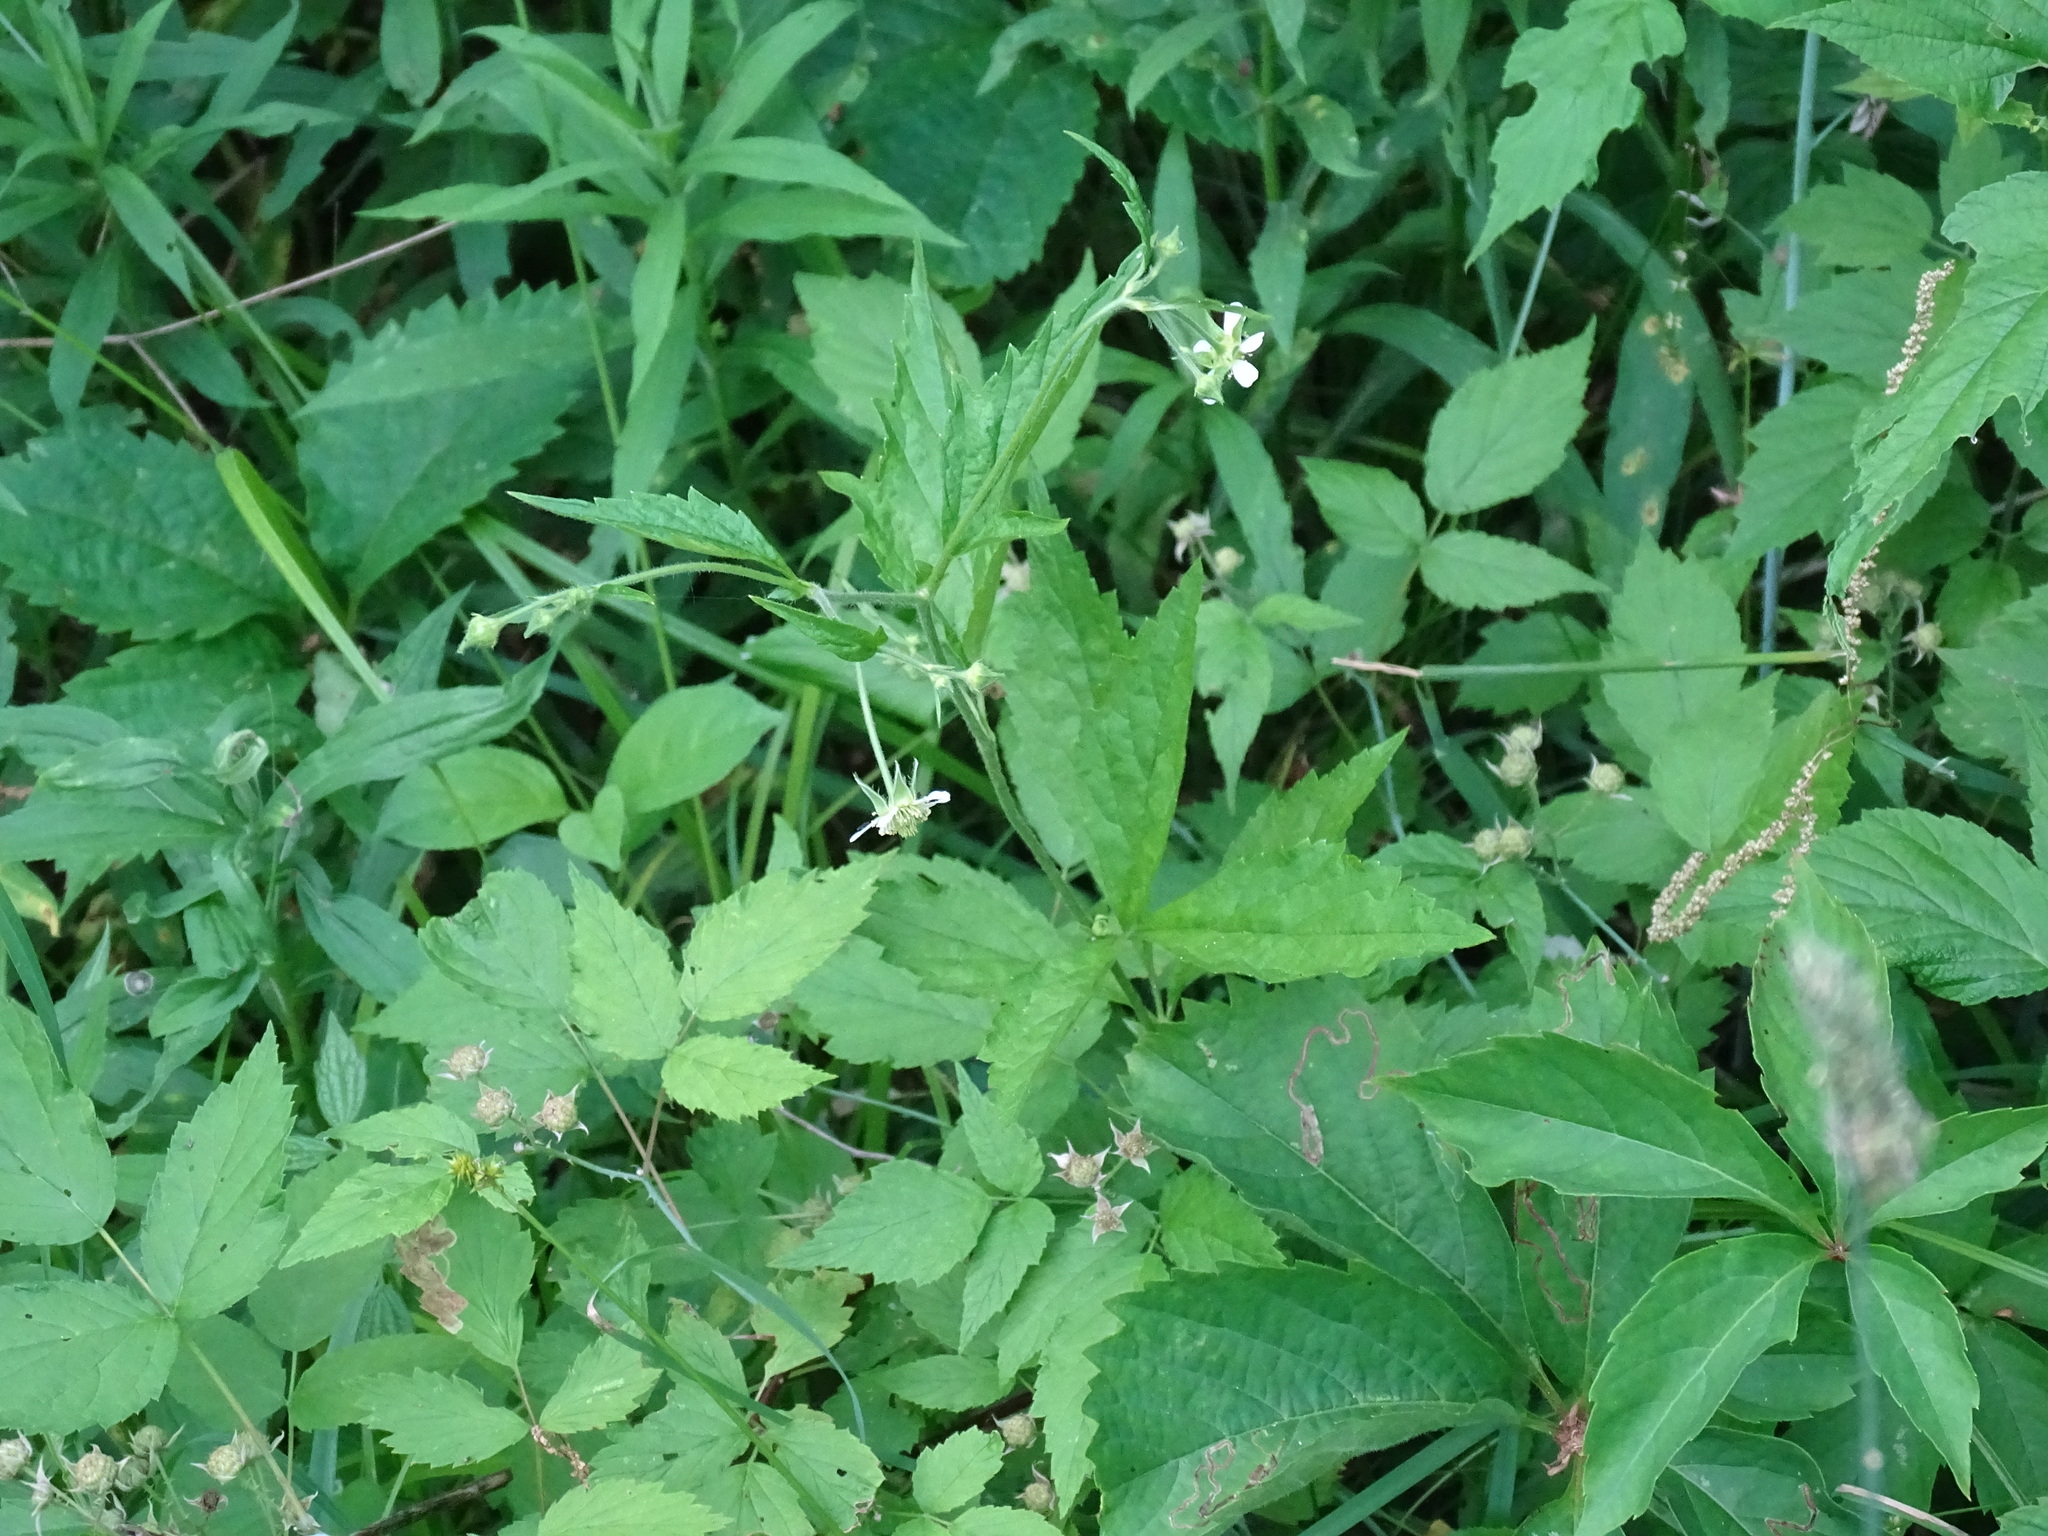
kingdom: Plantae
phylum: Tracheophyta
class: Magnoliopsida
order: Rosales
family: Rosaceae
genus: Geum
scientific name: Geum canadense
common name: White avens
